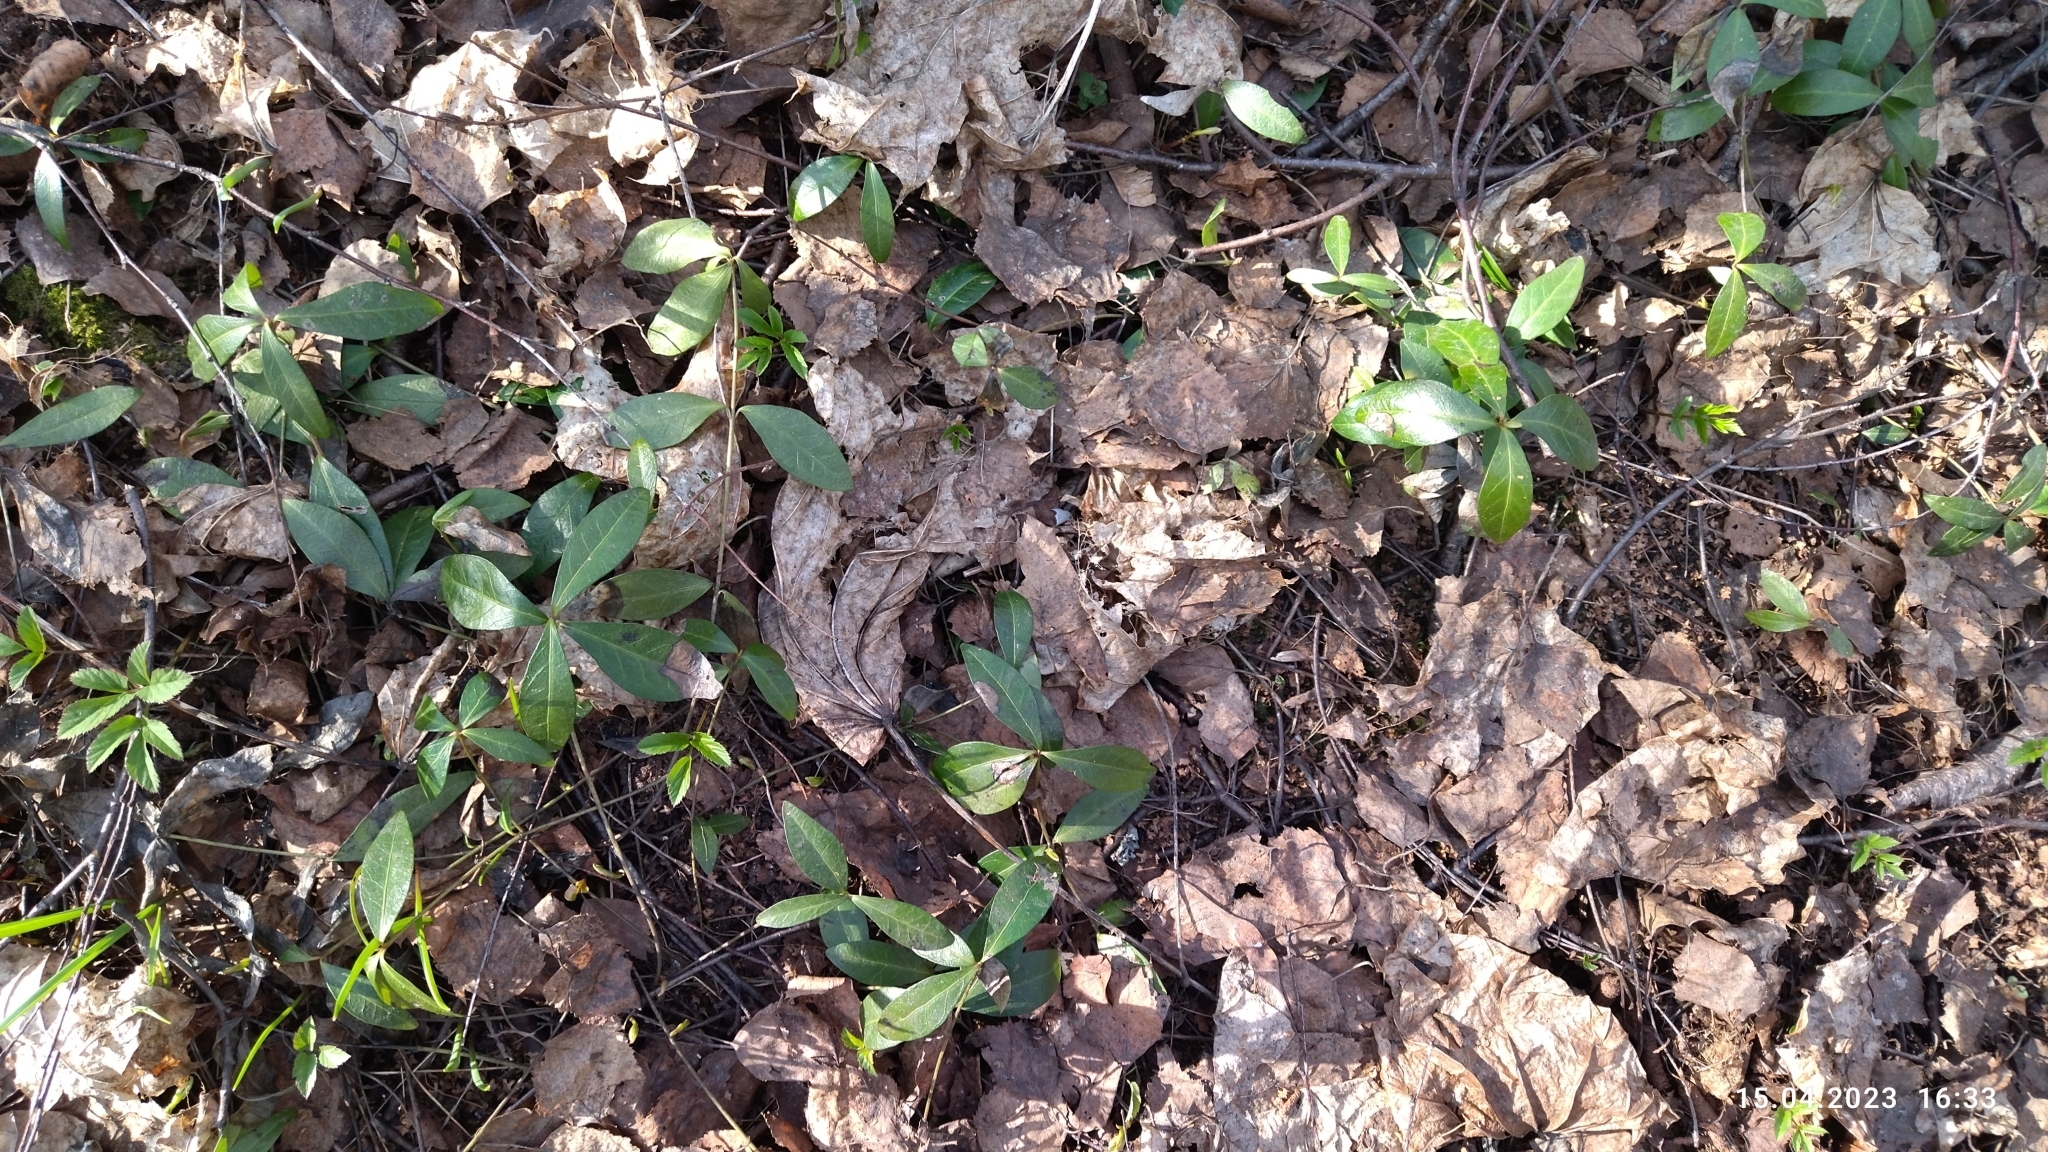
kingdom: Plantae
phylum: Tracheophyta
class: Magnoliopsida
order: Gentianales
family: Apocynaceae
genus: Vinca
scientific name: Vinca minor
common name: Lesser periwinkle
